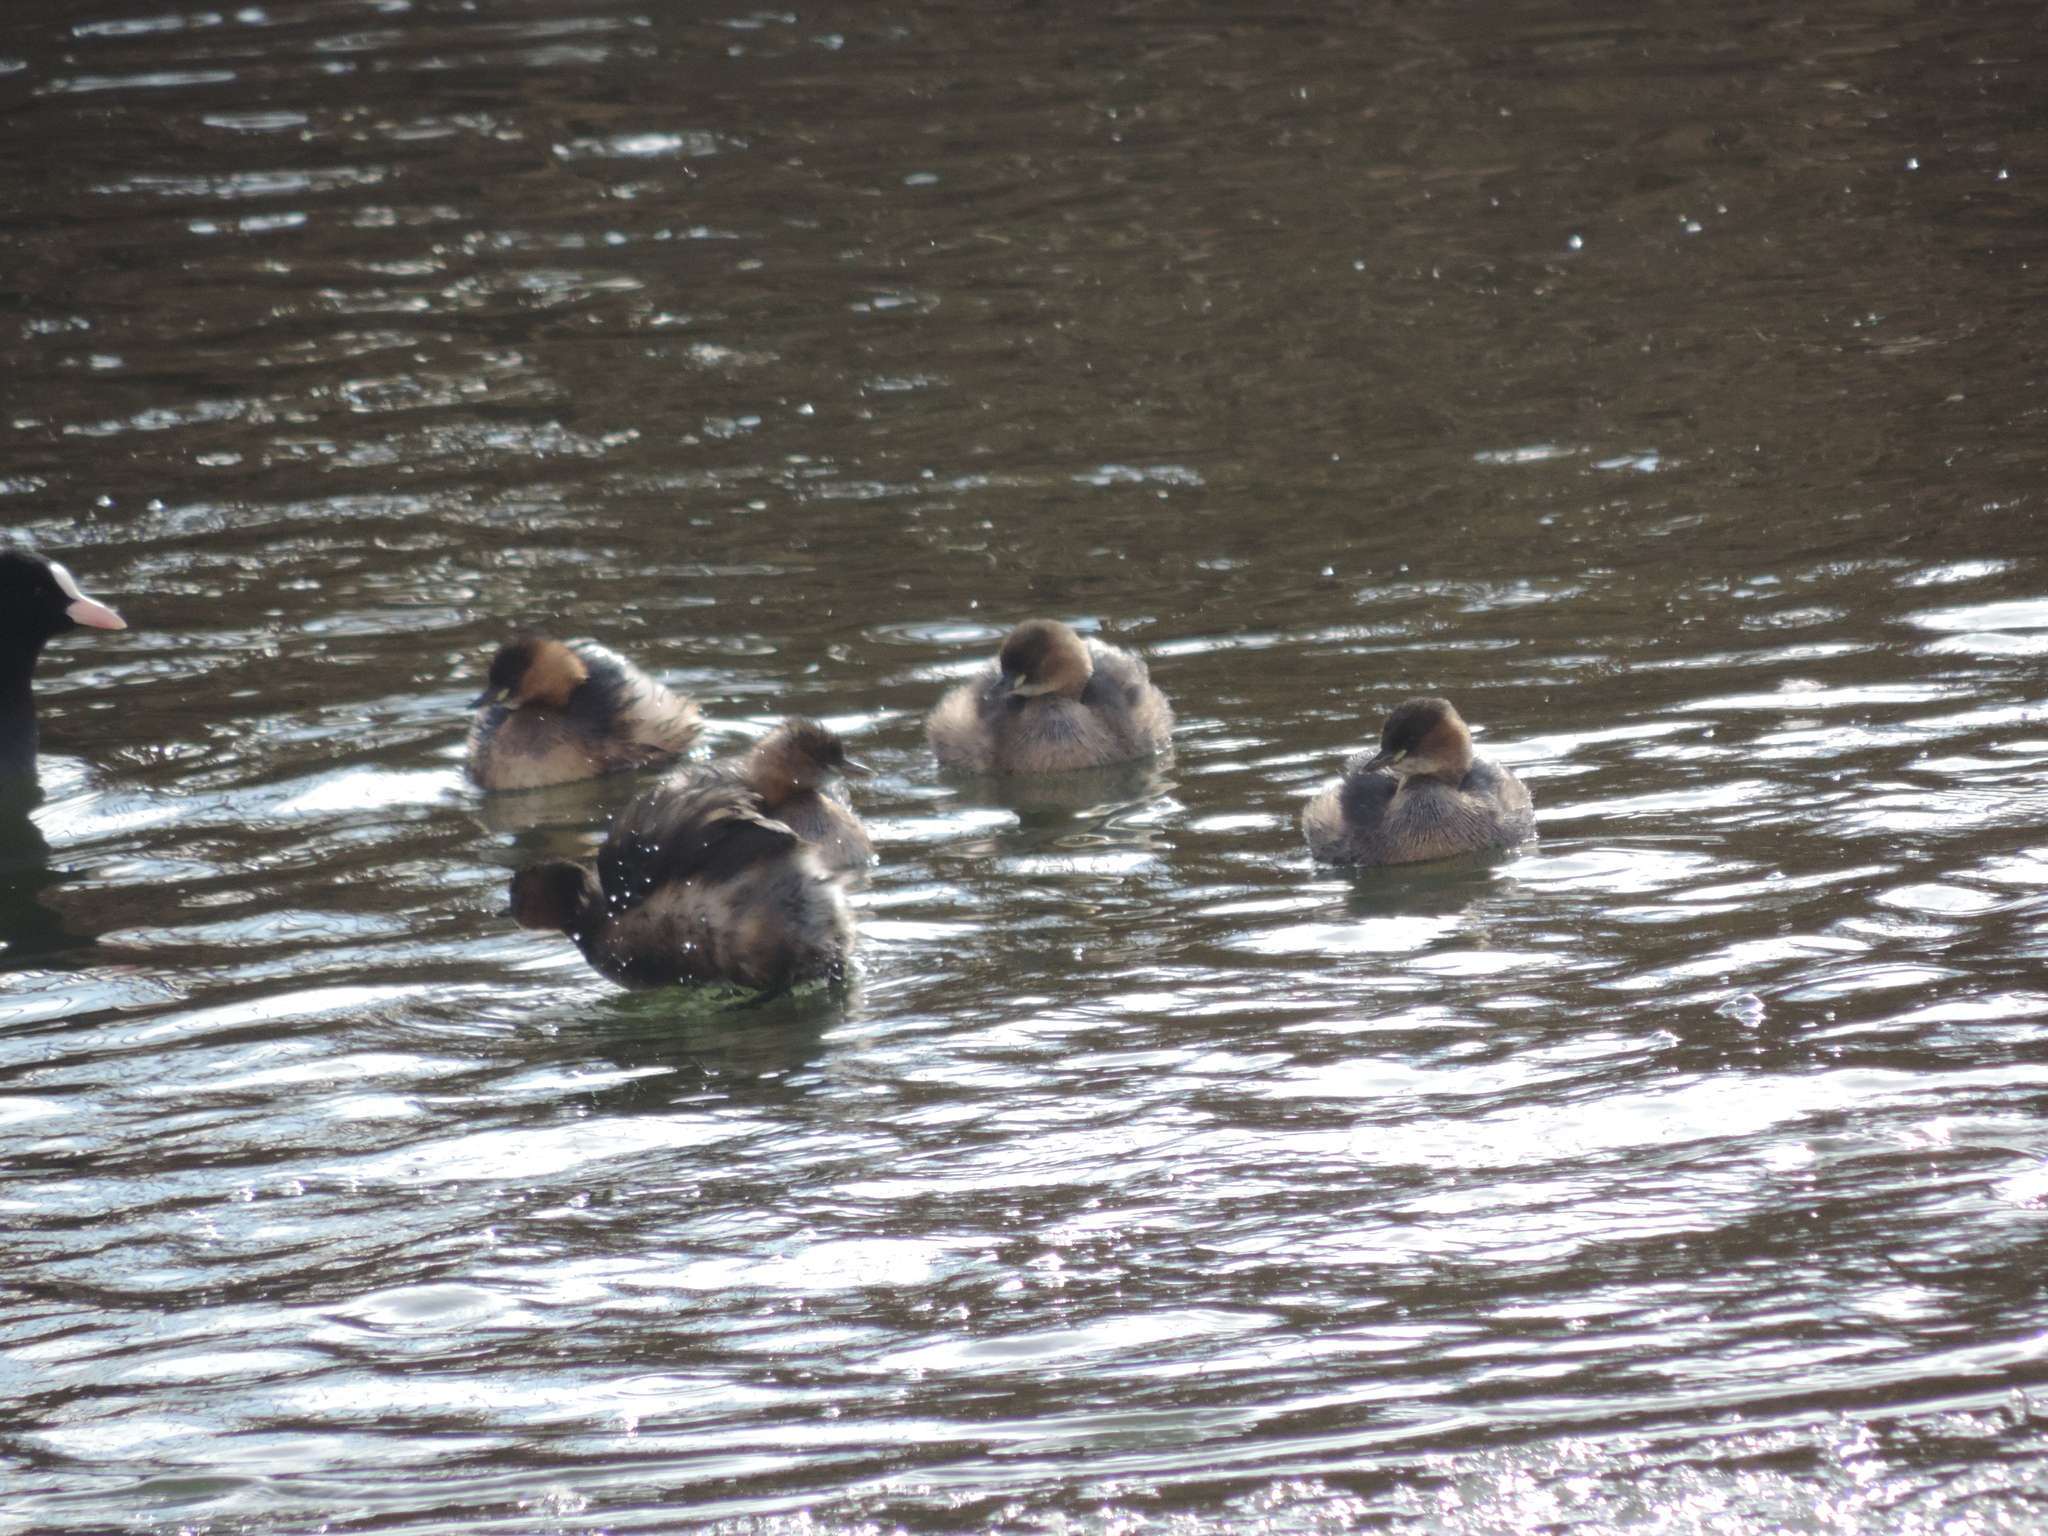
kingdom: Animalia
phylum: Chordata
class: Aves
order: Podicipediformes
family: Podicipedidae
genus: Tachybaptus
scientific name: Tachybaptus ruficollis
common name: Little grebe
